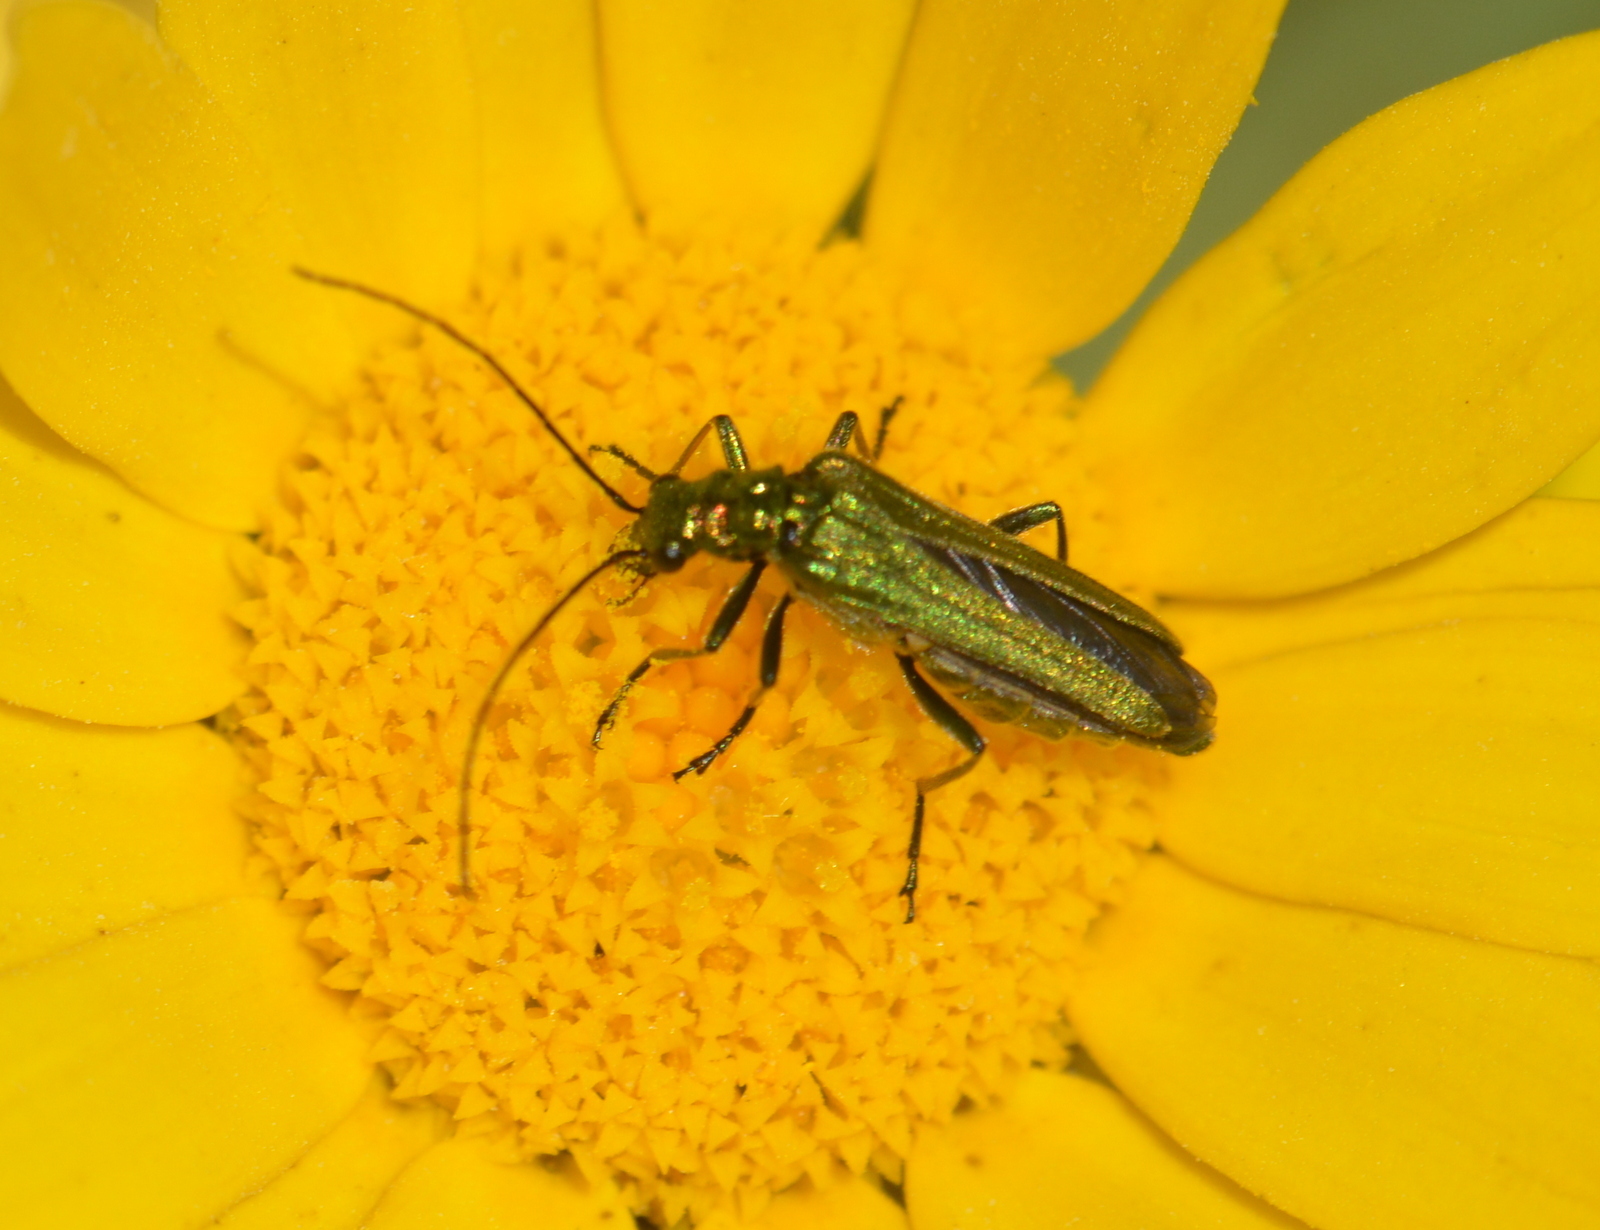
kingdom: Animalia
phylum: Arthropoda
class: Insecta
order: Coleoptera
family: Oedemeridae
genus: Oedemera
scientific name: Oedemera nobilis
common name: Swollen-thighed beetle
